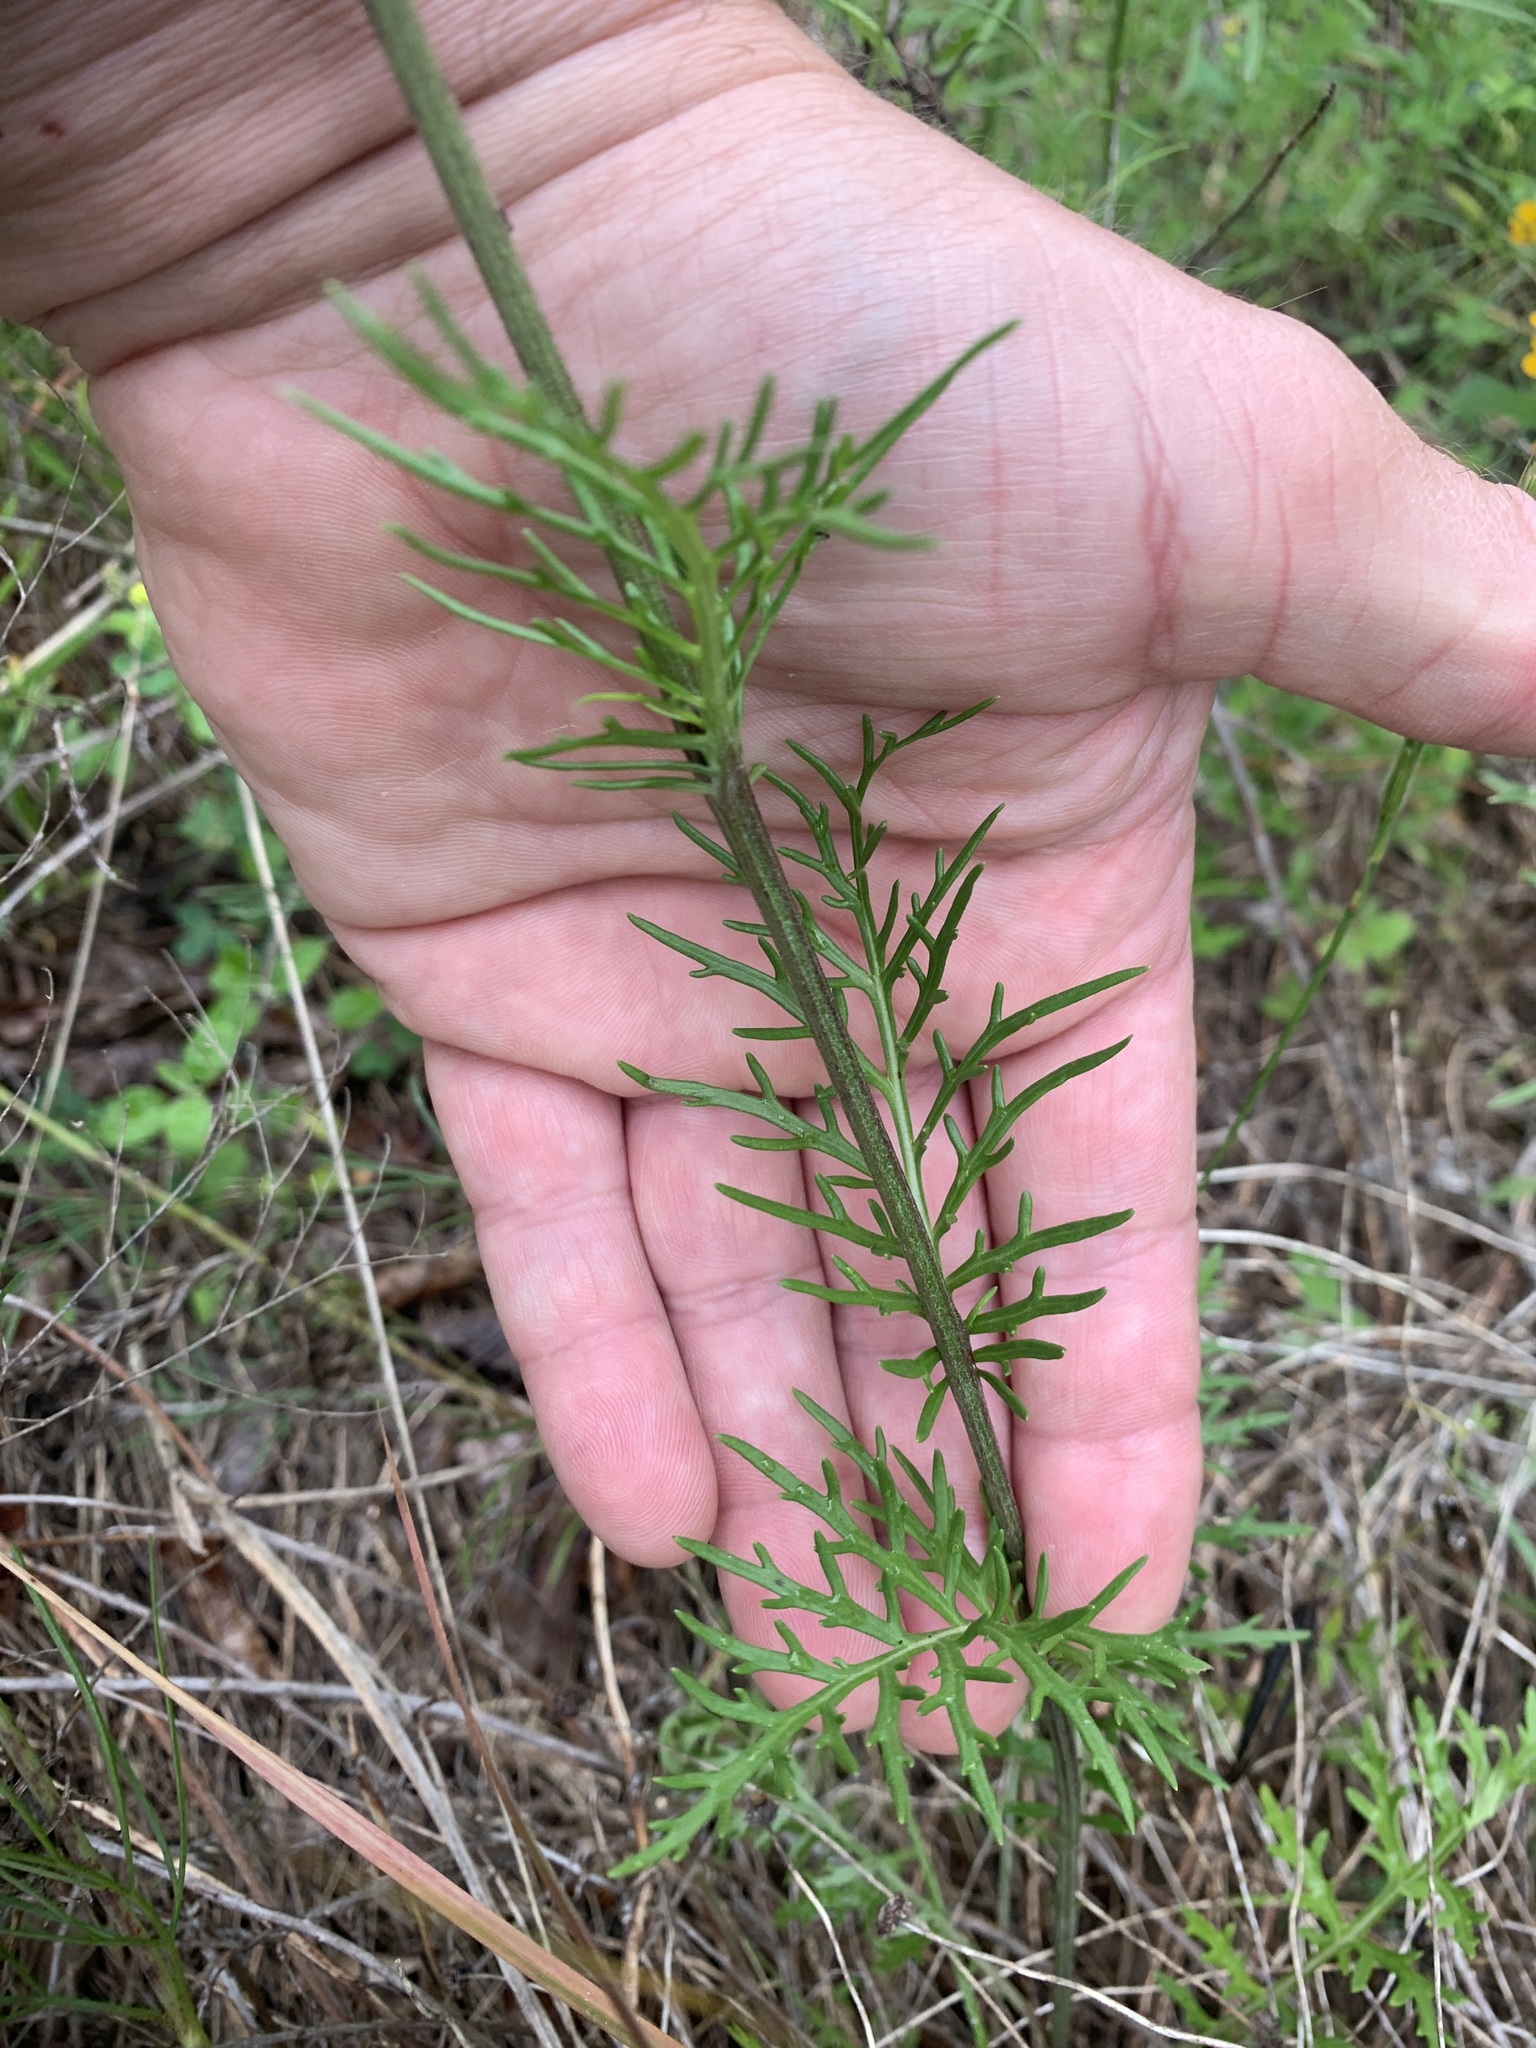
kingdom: Plantae
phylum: Tracheophyta
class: Magnoliopsida
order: Asterales
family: Asteraceae
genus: Hymenopappus
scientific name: Hymenopappus scabiosaeus
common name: Carolina woollywhite
